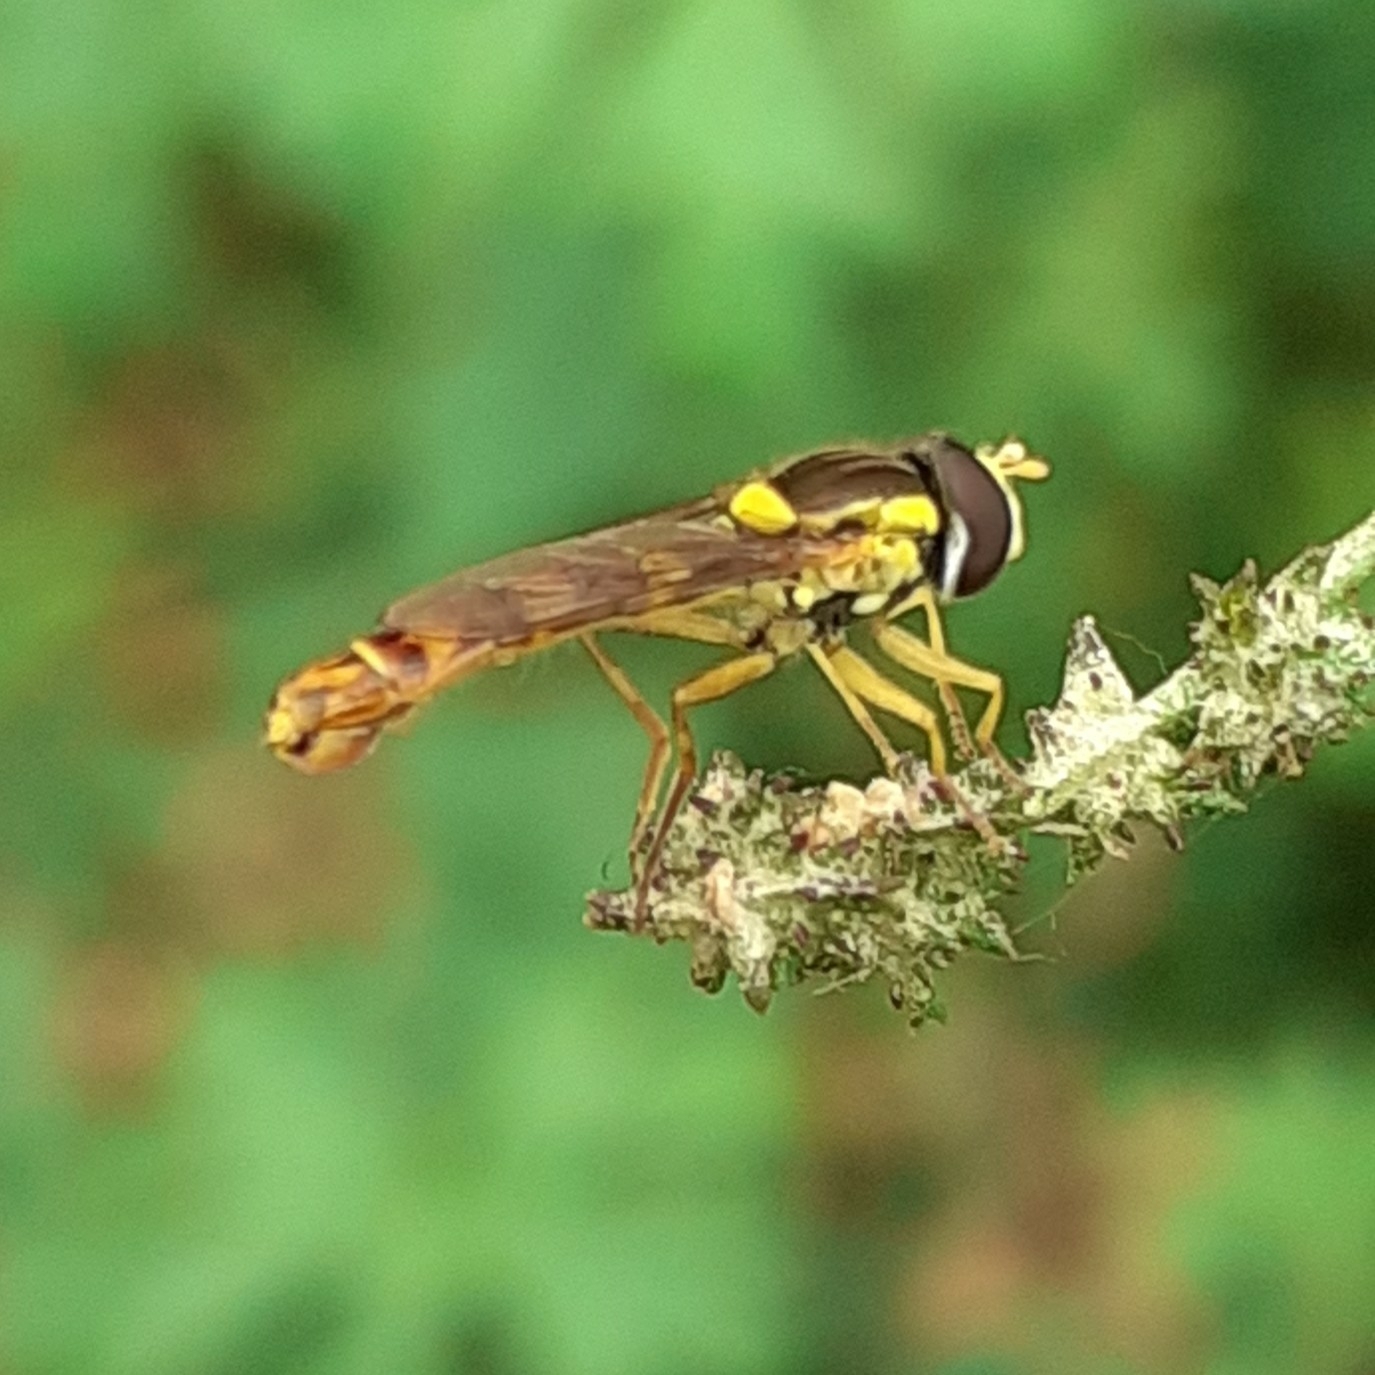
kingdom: Animalia
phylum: Arthropoda
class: Insecta
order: Diptera
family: Syrphidae
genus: Sphaerophoria
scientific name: Sphaerophoria scripta
